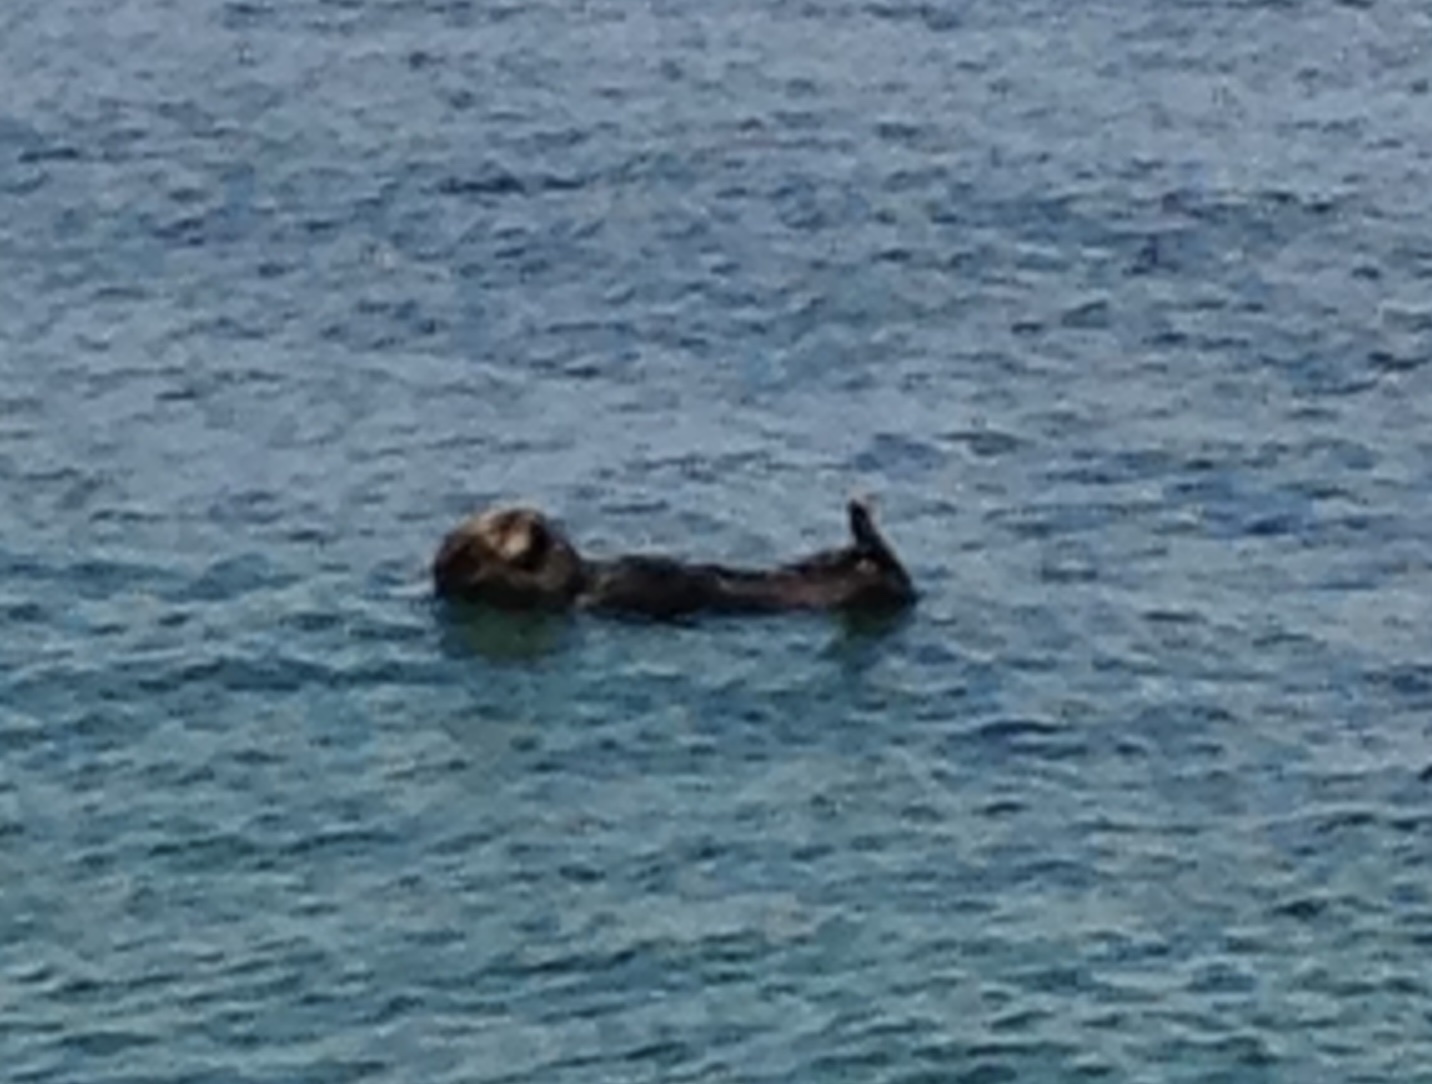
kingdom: Animalia
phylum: Chordata
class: Mammalia
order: Carnivora
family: Mustelidae
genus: Enhydra
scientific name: Enhydra lutris
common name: Sea otter
